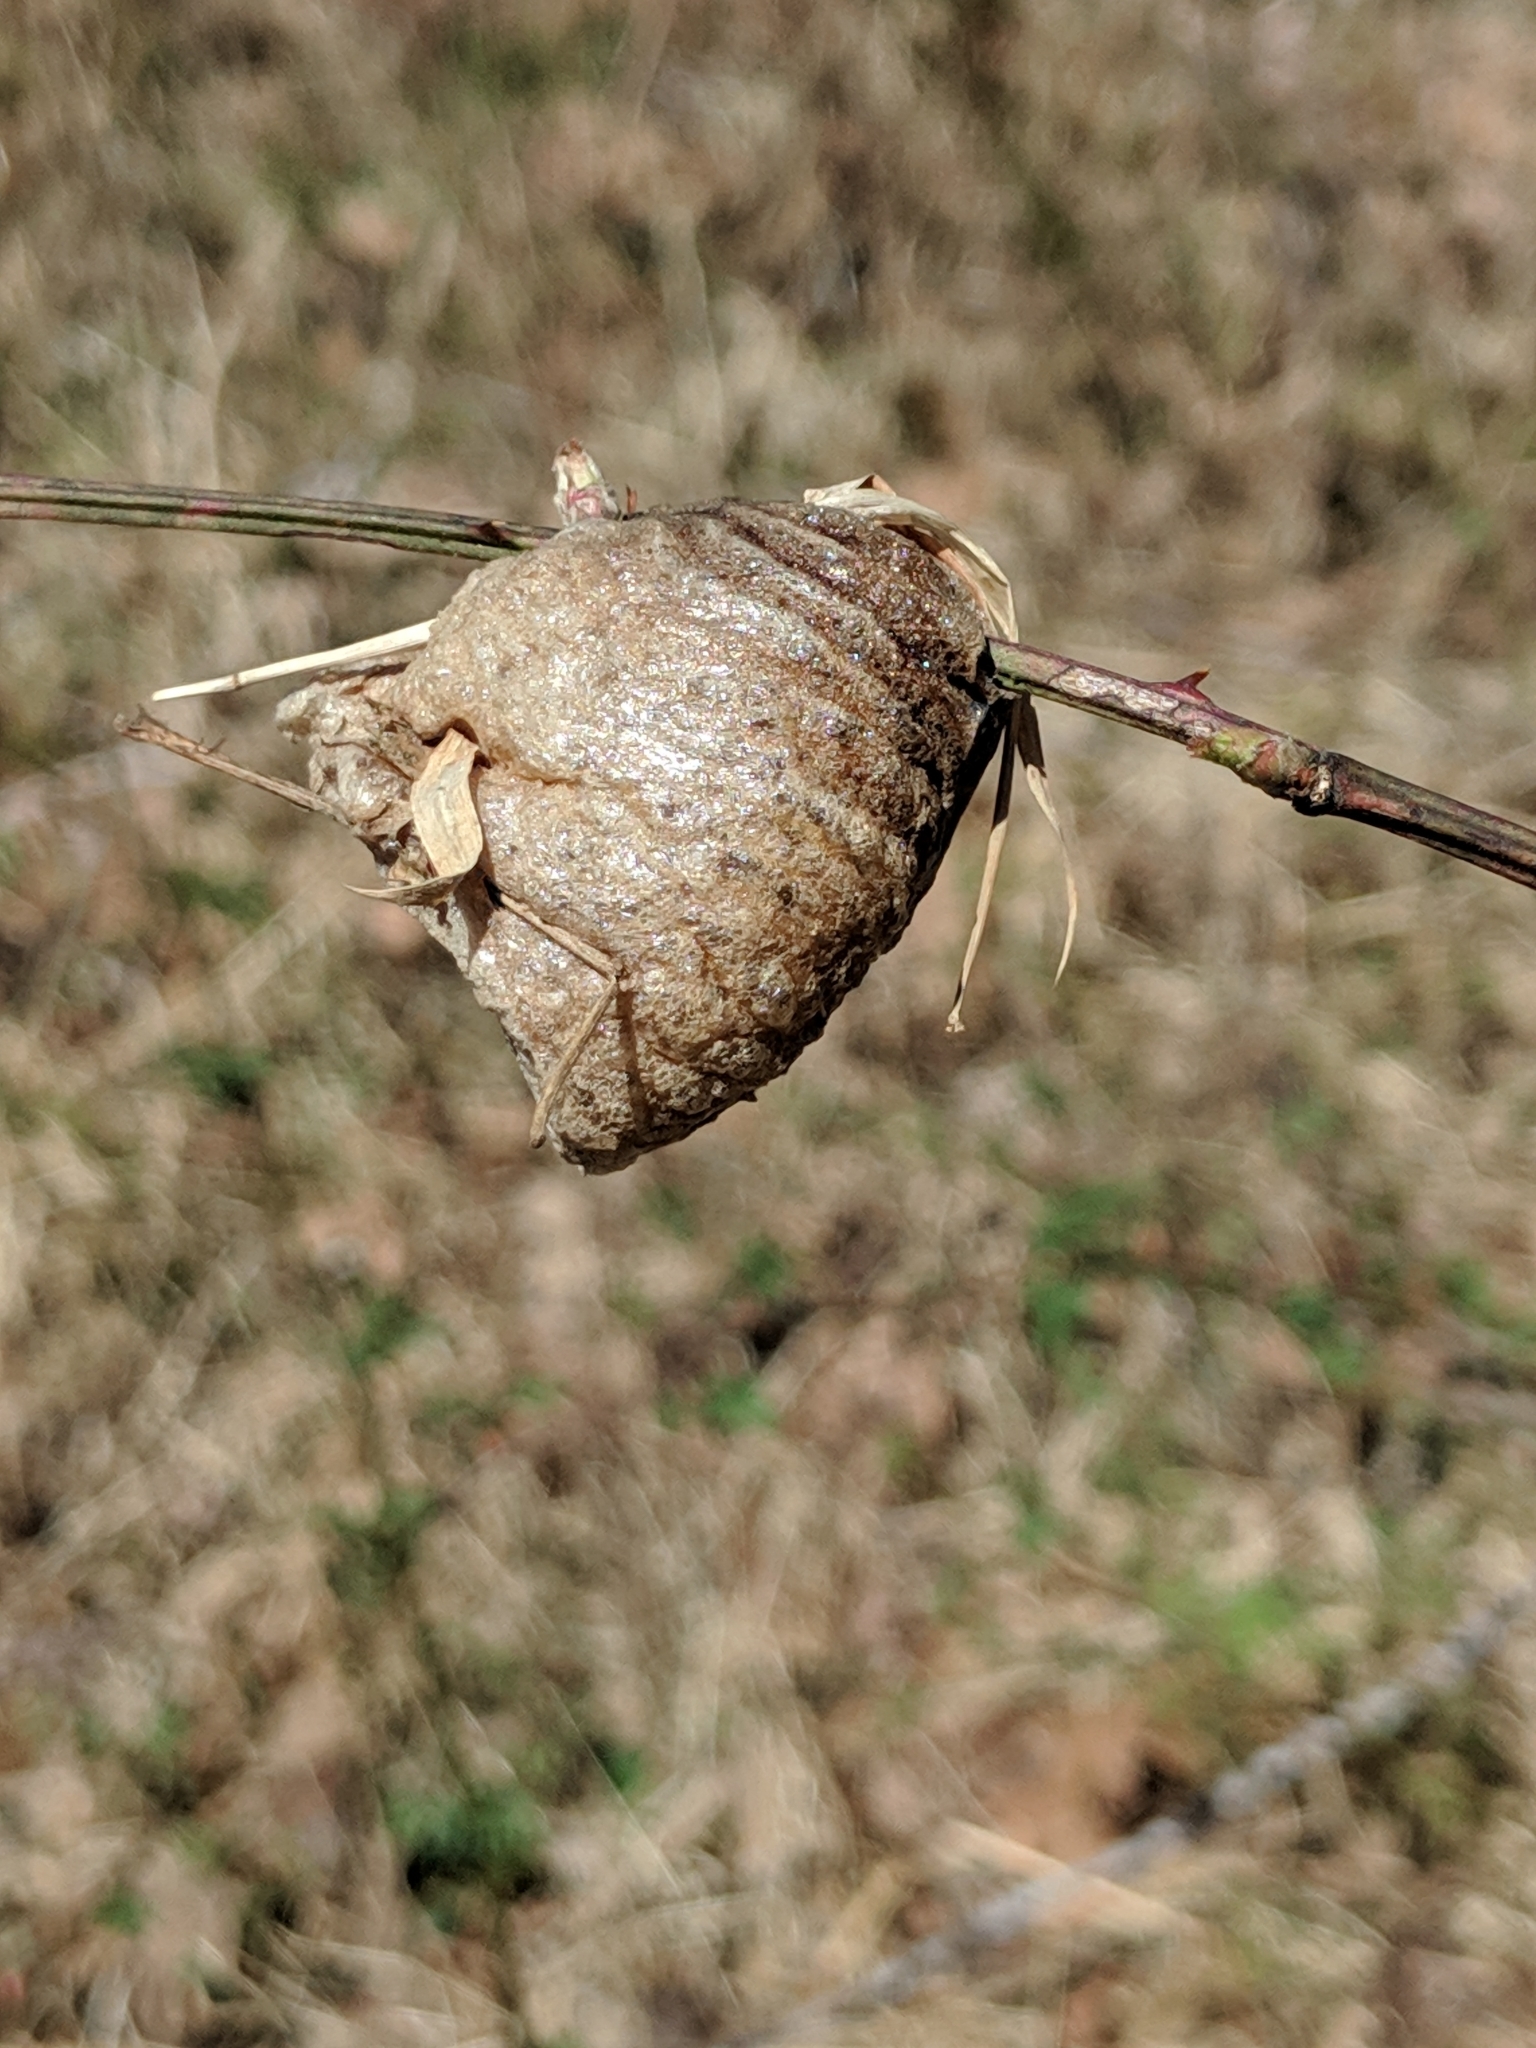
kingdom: Animalia
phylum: Arthropoda
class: Insecta
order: Mantodea
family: Mantidae
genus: Tenodera
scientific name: Tenodera sinensis
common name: Chinese mantis
